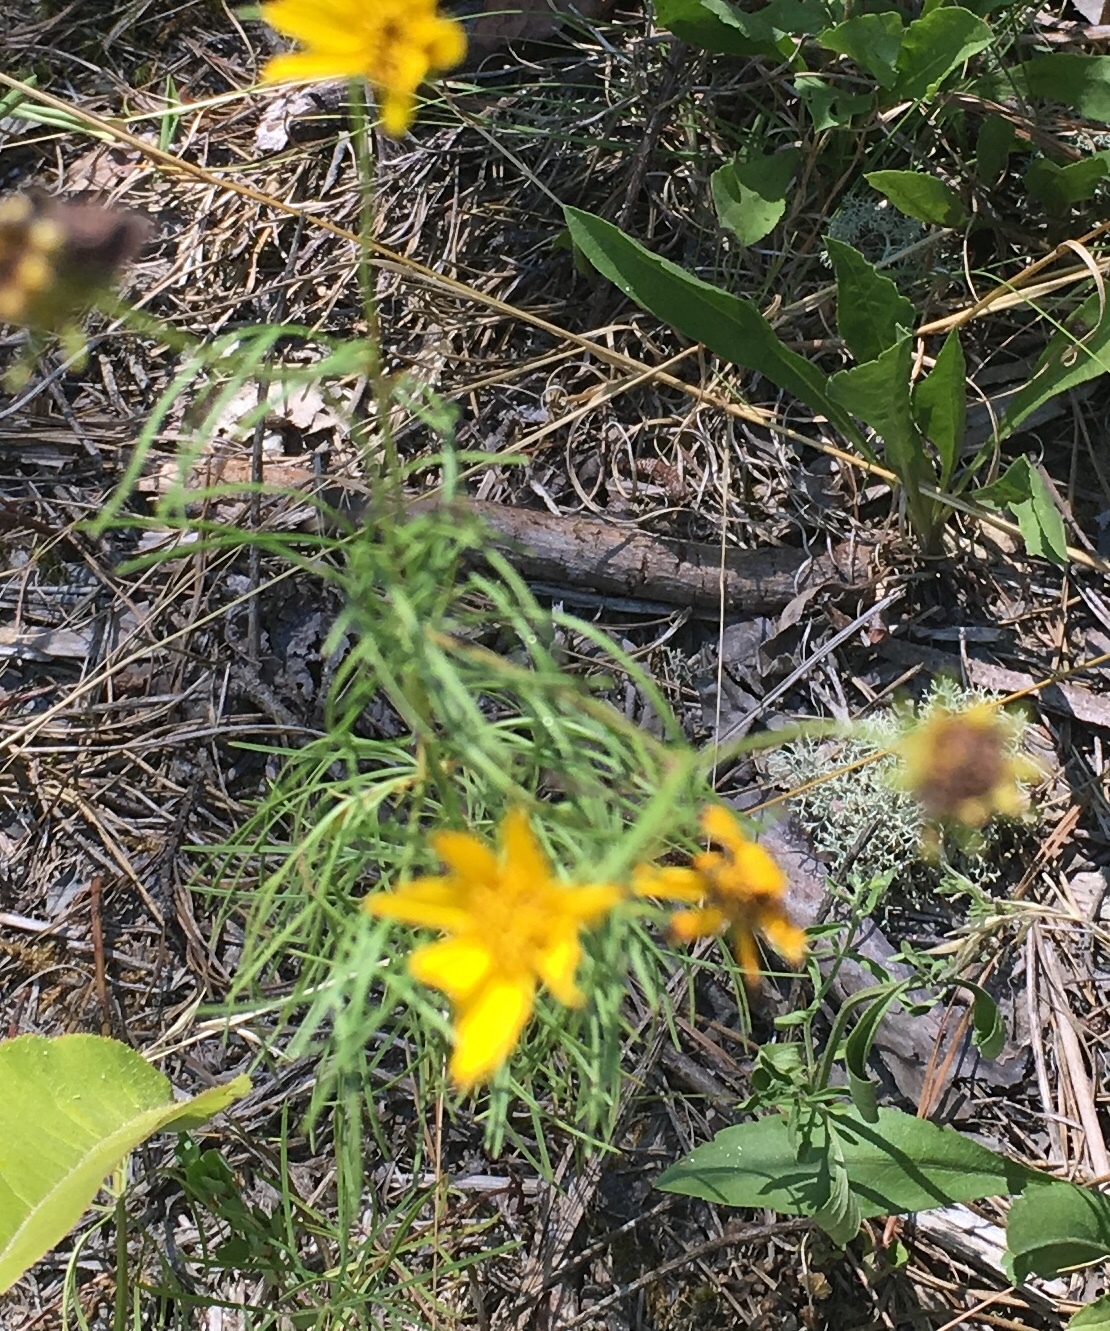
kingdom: Plantae
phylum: Tracheophyta
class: Magnoliopsida
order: Asterales
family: Asteraceae
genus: Coreopsis
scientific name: Coreopsis verticillata
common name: Whorled tickseed
